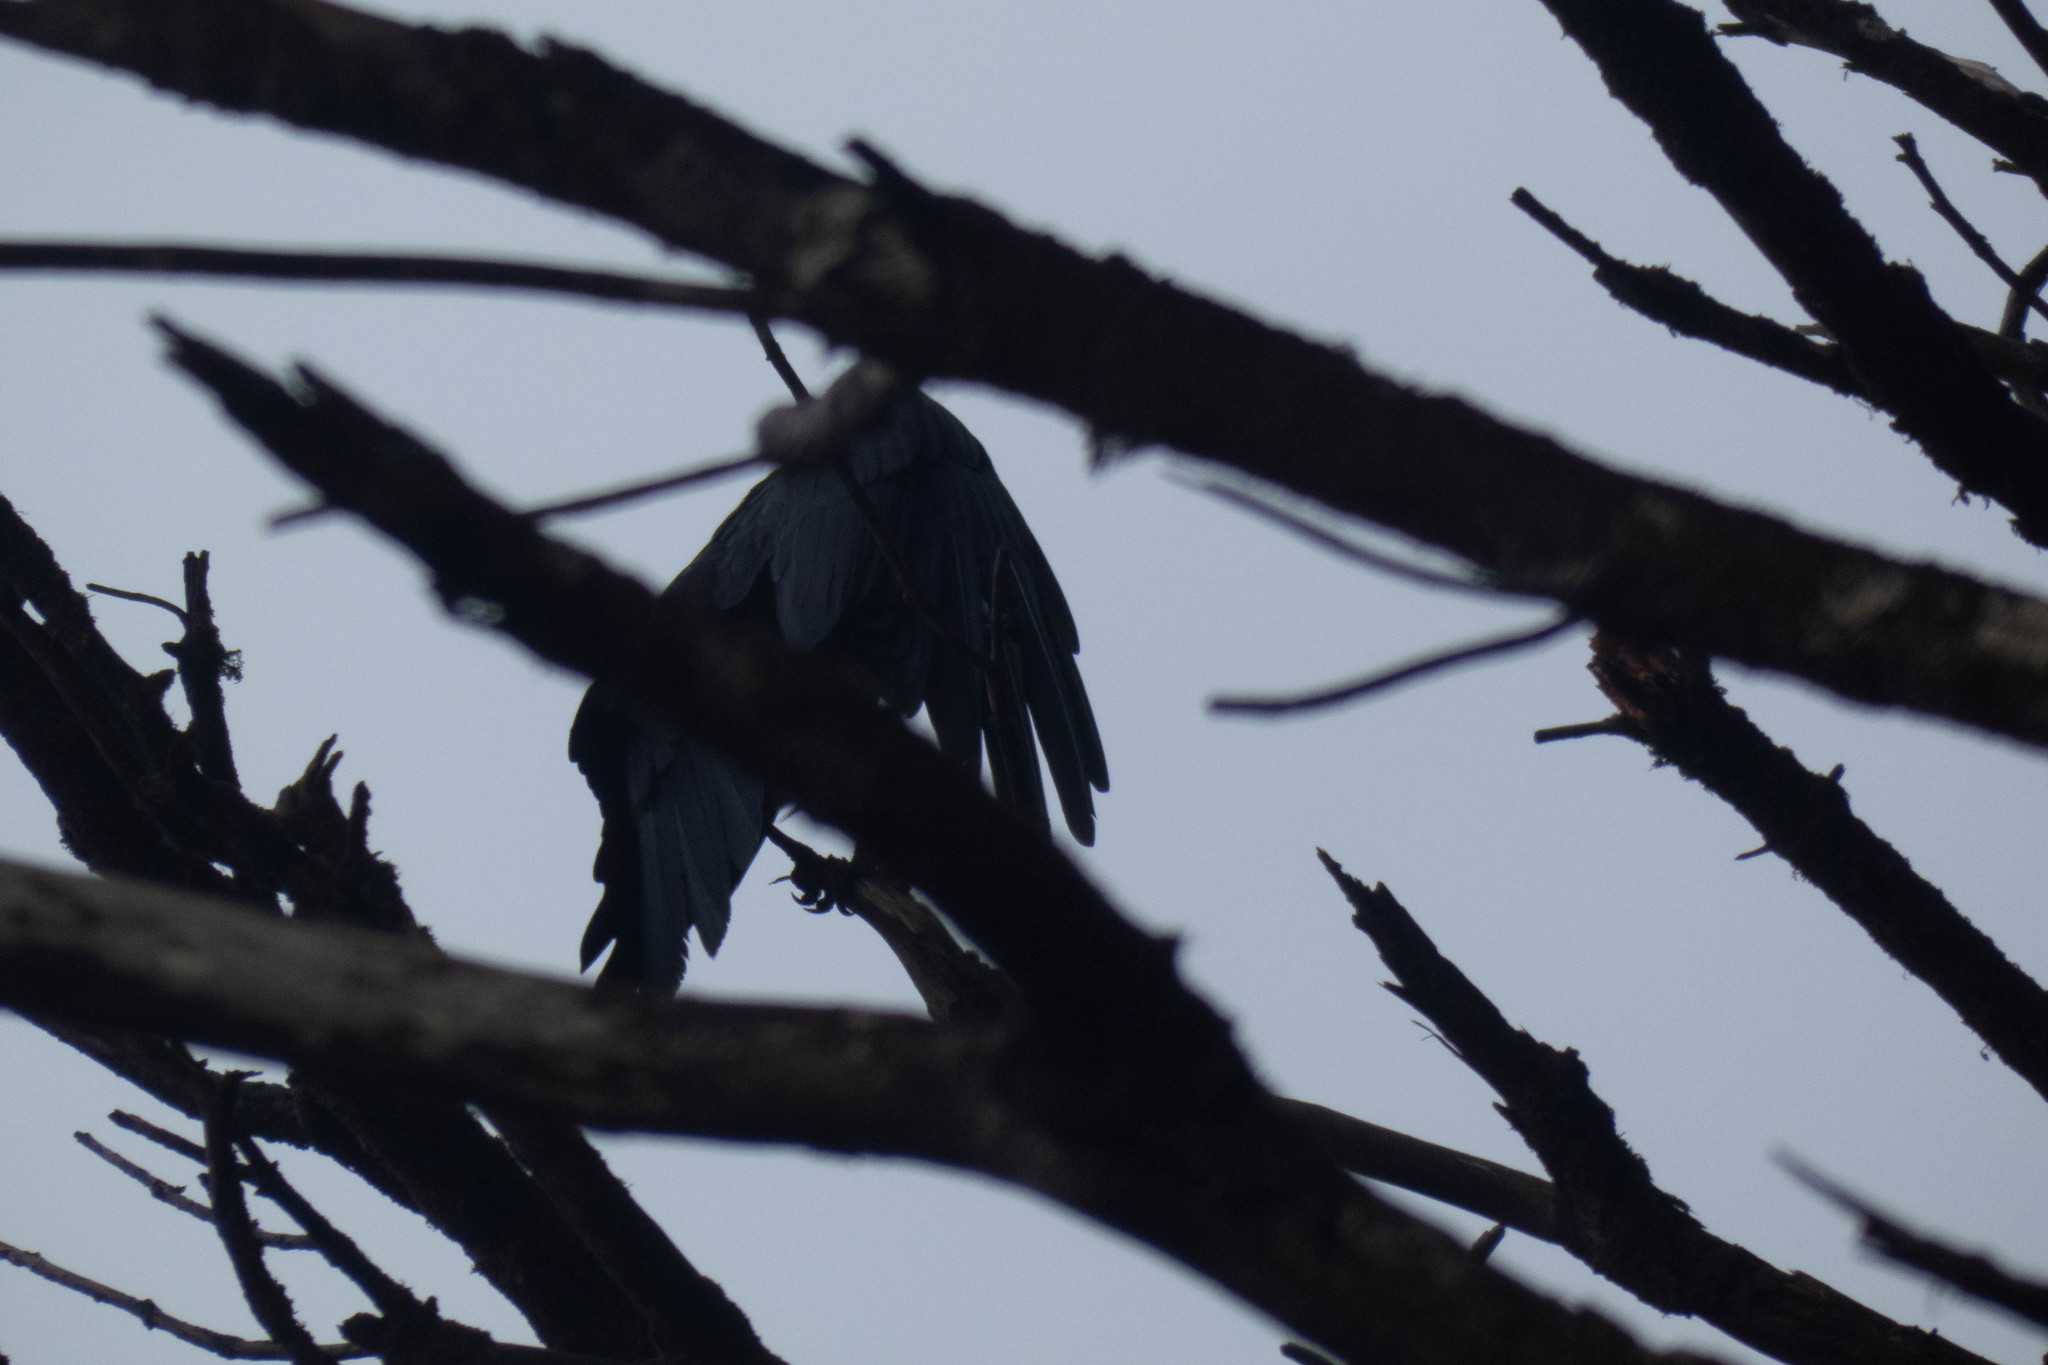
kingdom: Animalia
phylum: Chordata
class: Aves
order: Passeriformes
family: Corvidae
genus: Corvus
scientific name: Corvus brachyrhynchos
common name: American crow
